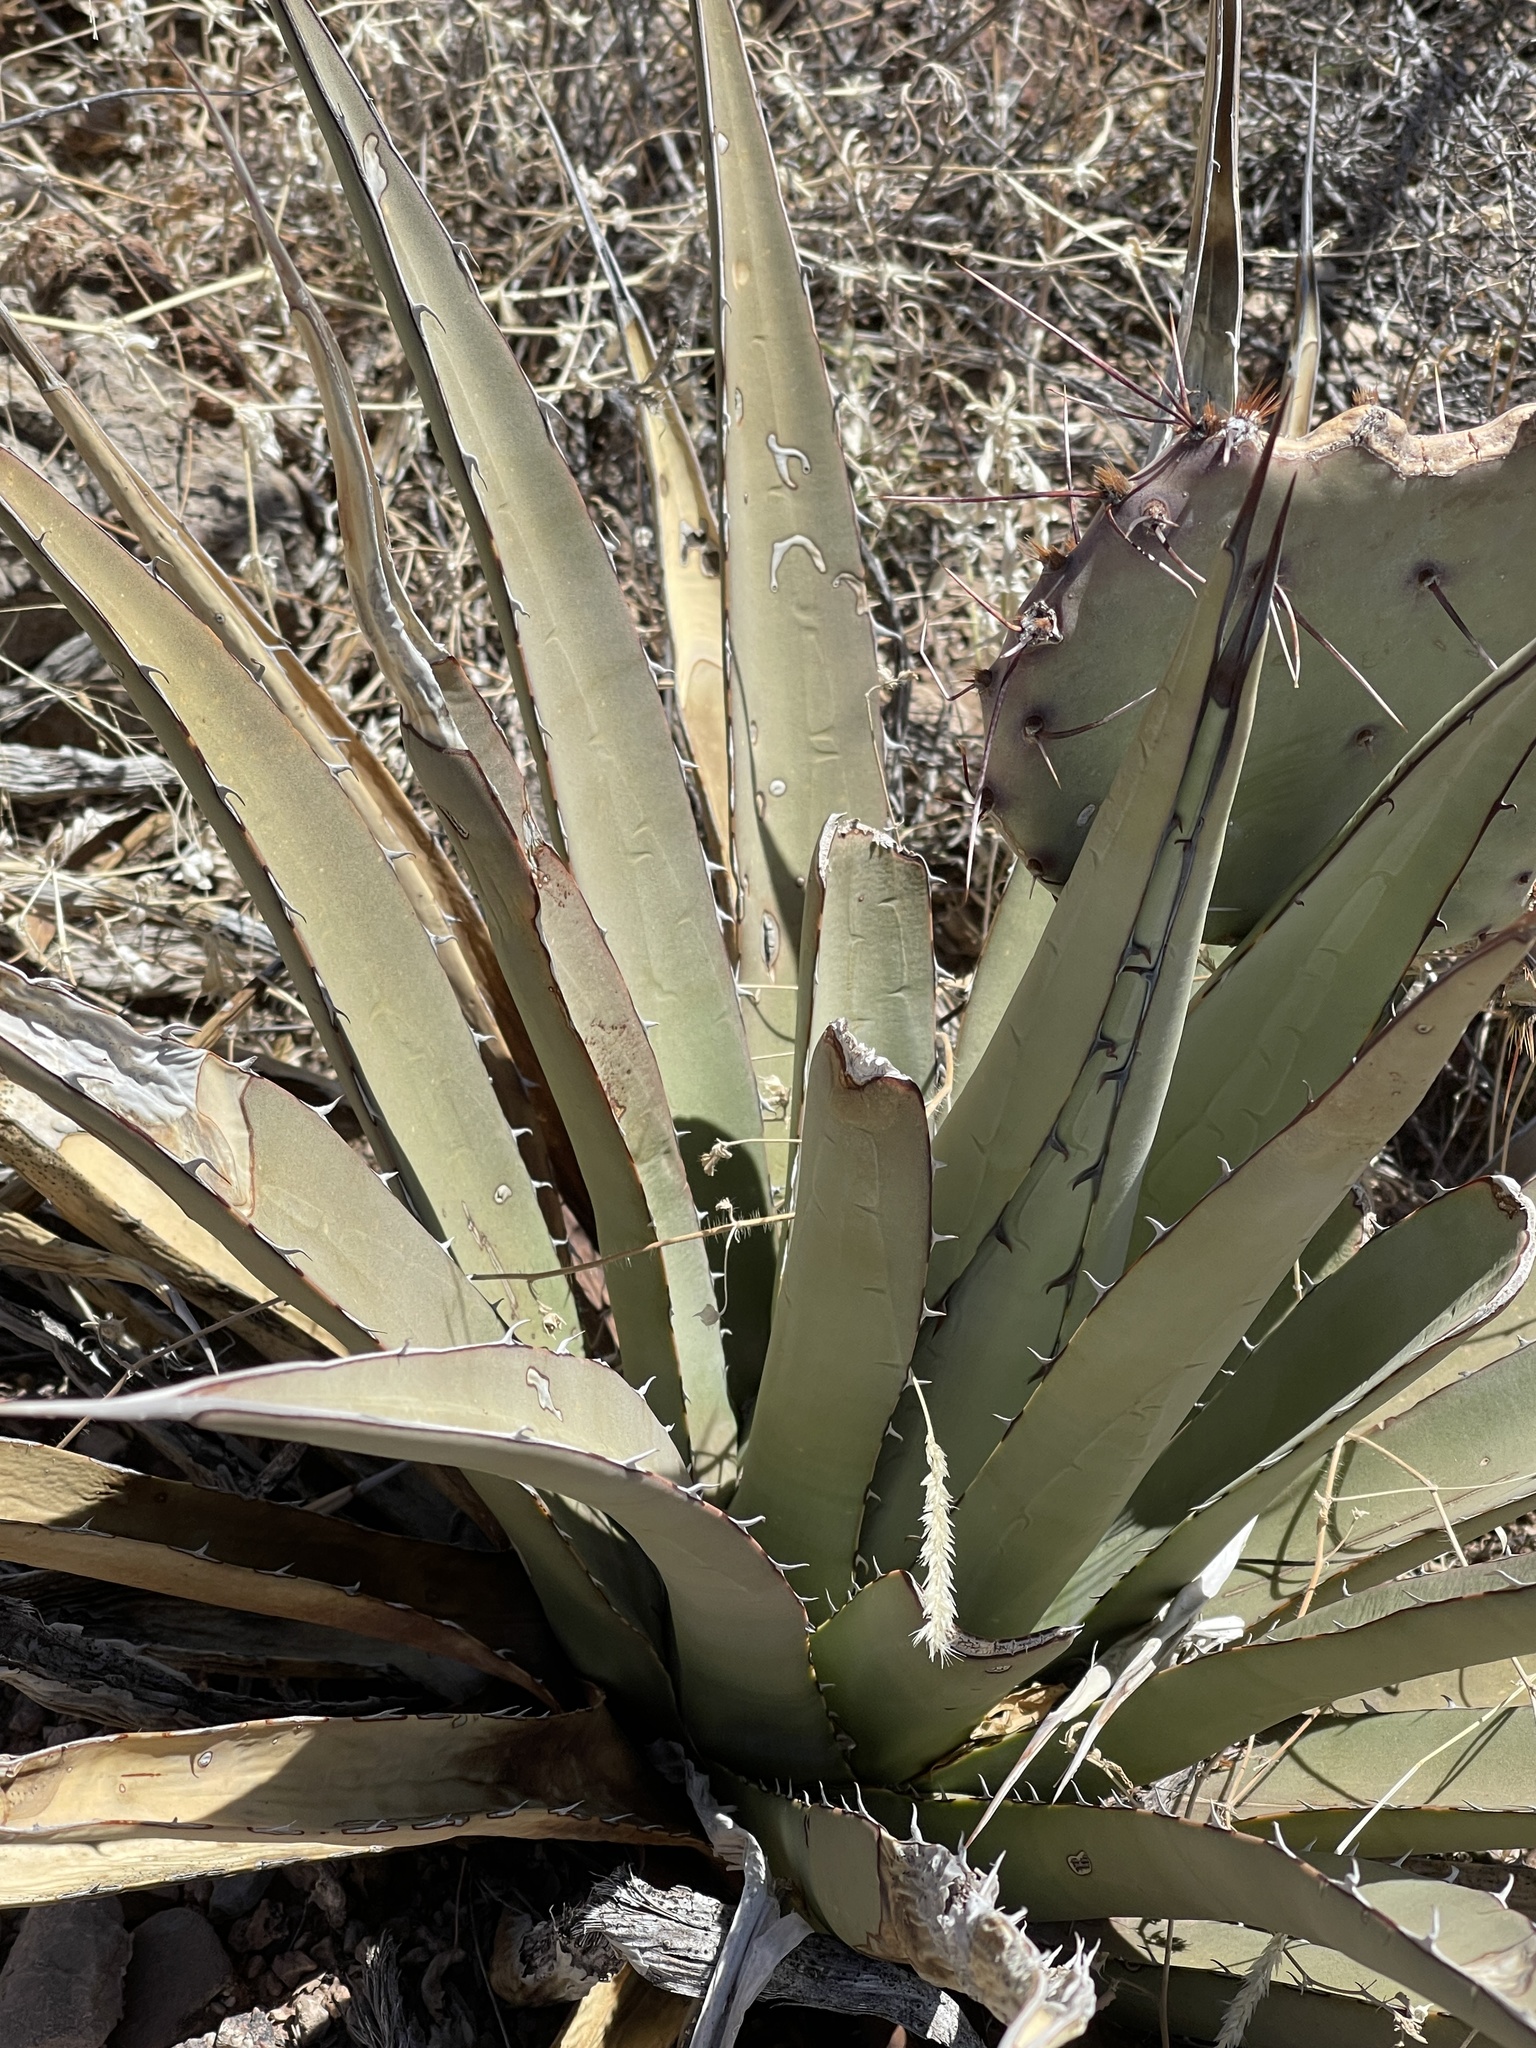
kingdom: Plantae
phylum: Tracheophyta
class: Liliopsida
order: Asparagales
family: Asparagaceae
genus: Agave
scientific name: Agave lechuguilla
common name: Lecheguilla agave
